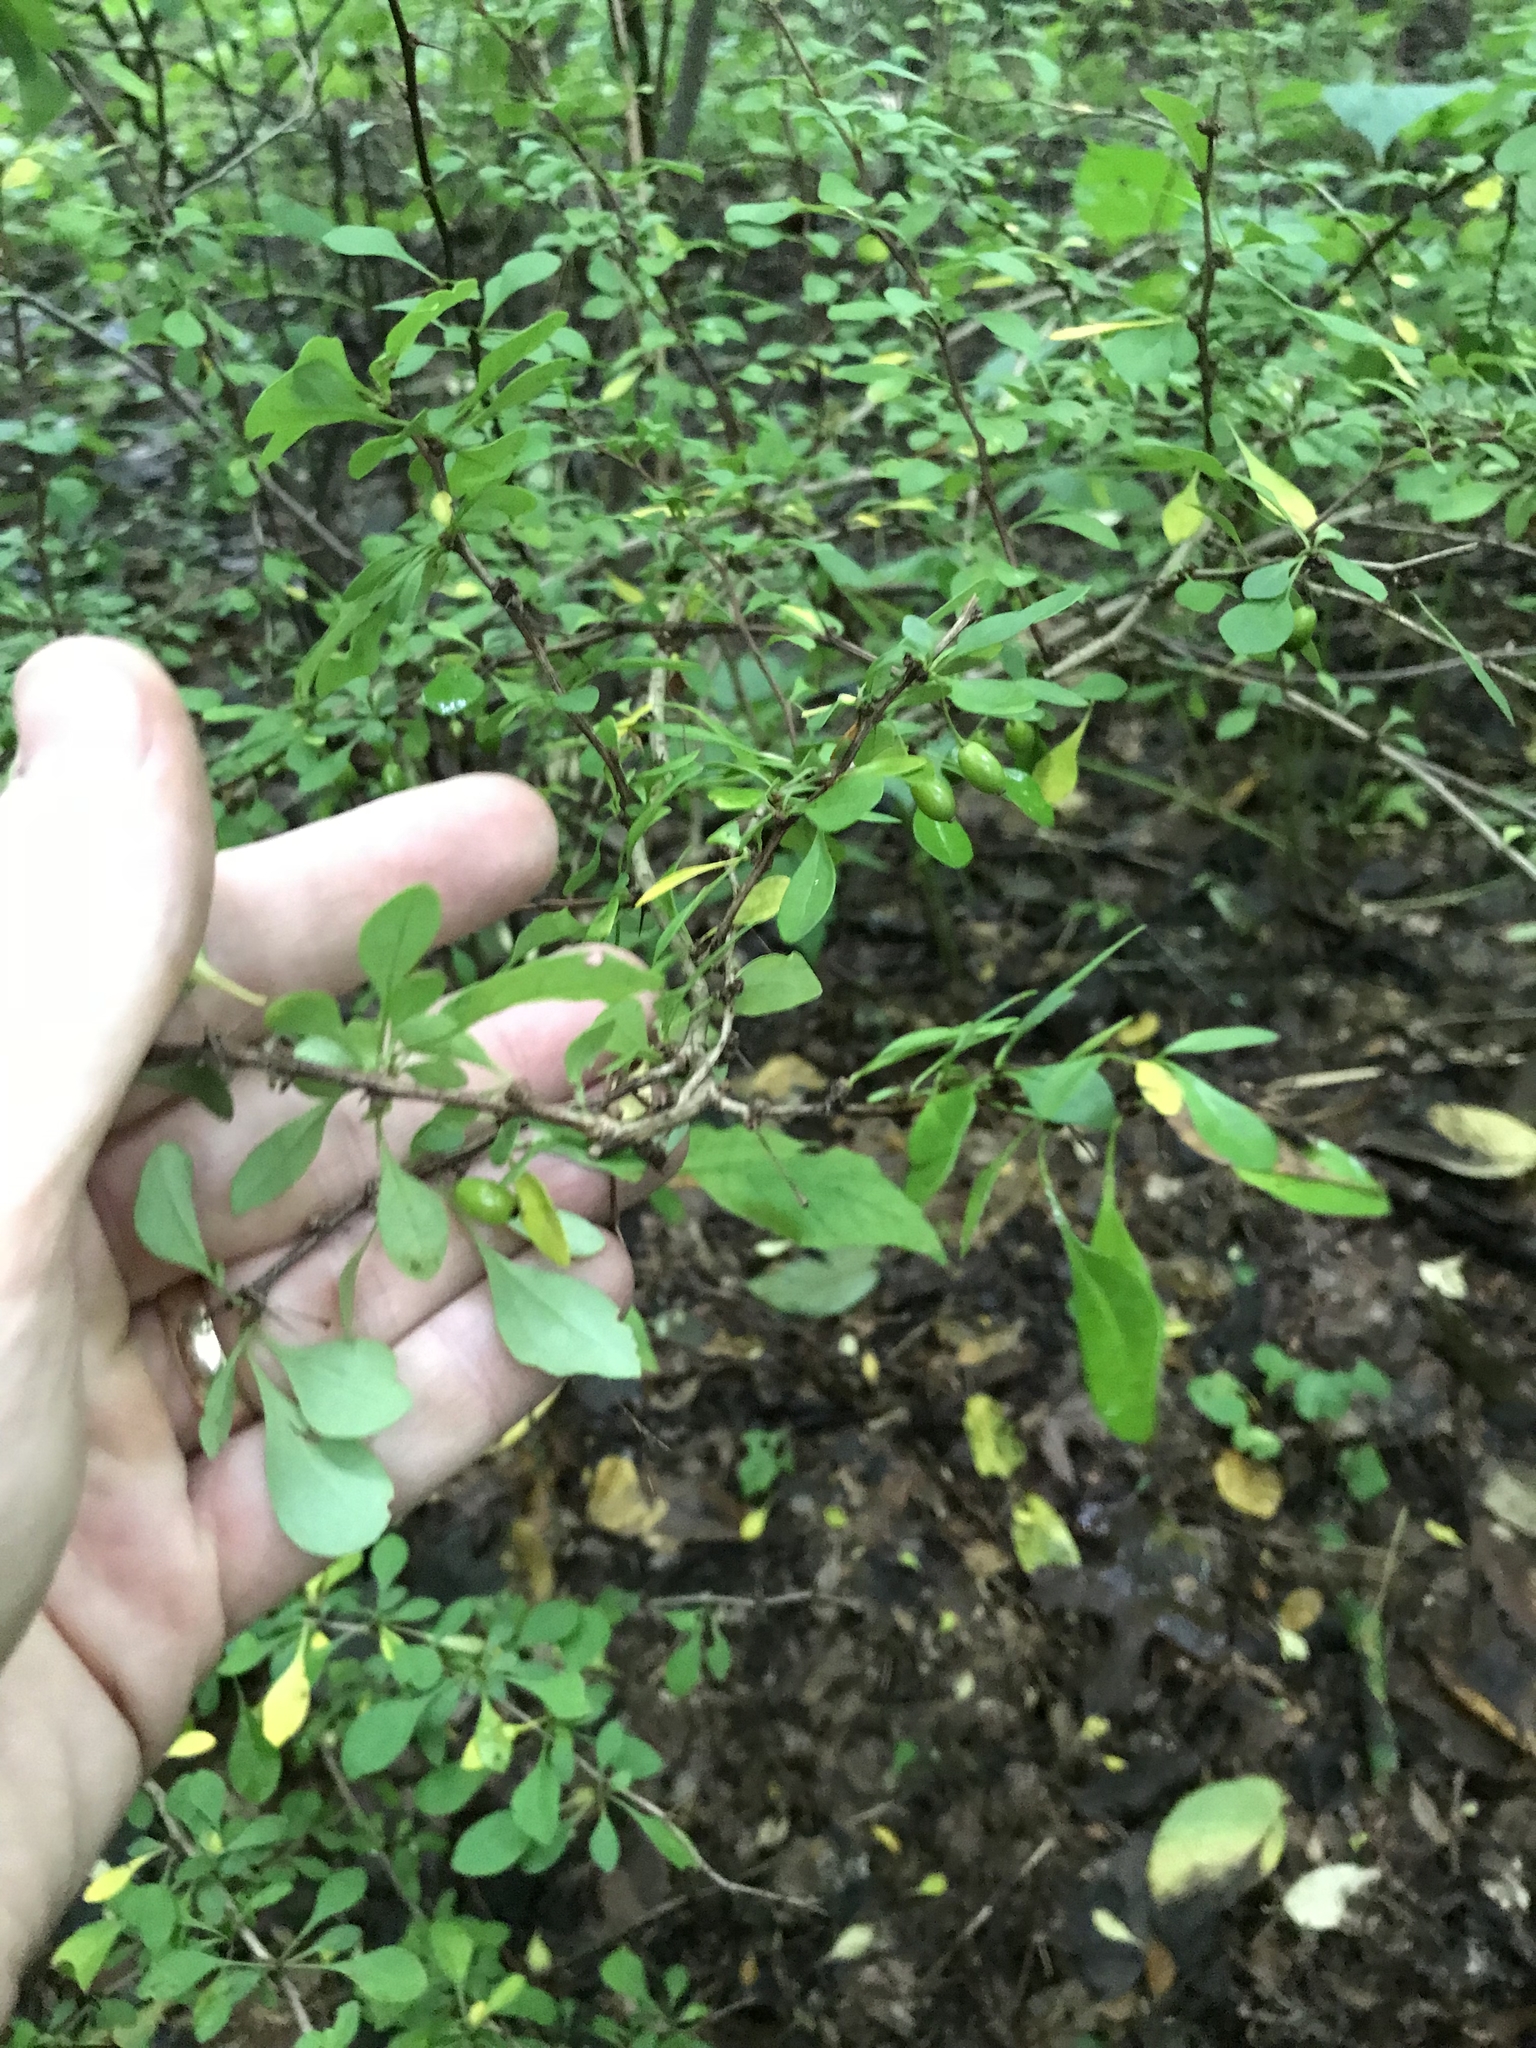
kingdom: Plantae
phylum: Tracheophyta
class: Magnoliopsida
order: Ranunculales
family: Berberidaceae
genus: Berberis
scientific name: Berberis thunbergii
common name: Japanese barberry
